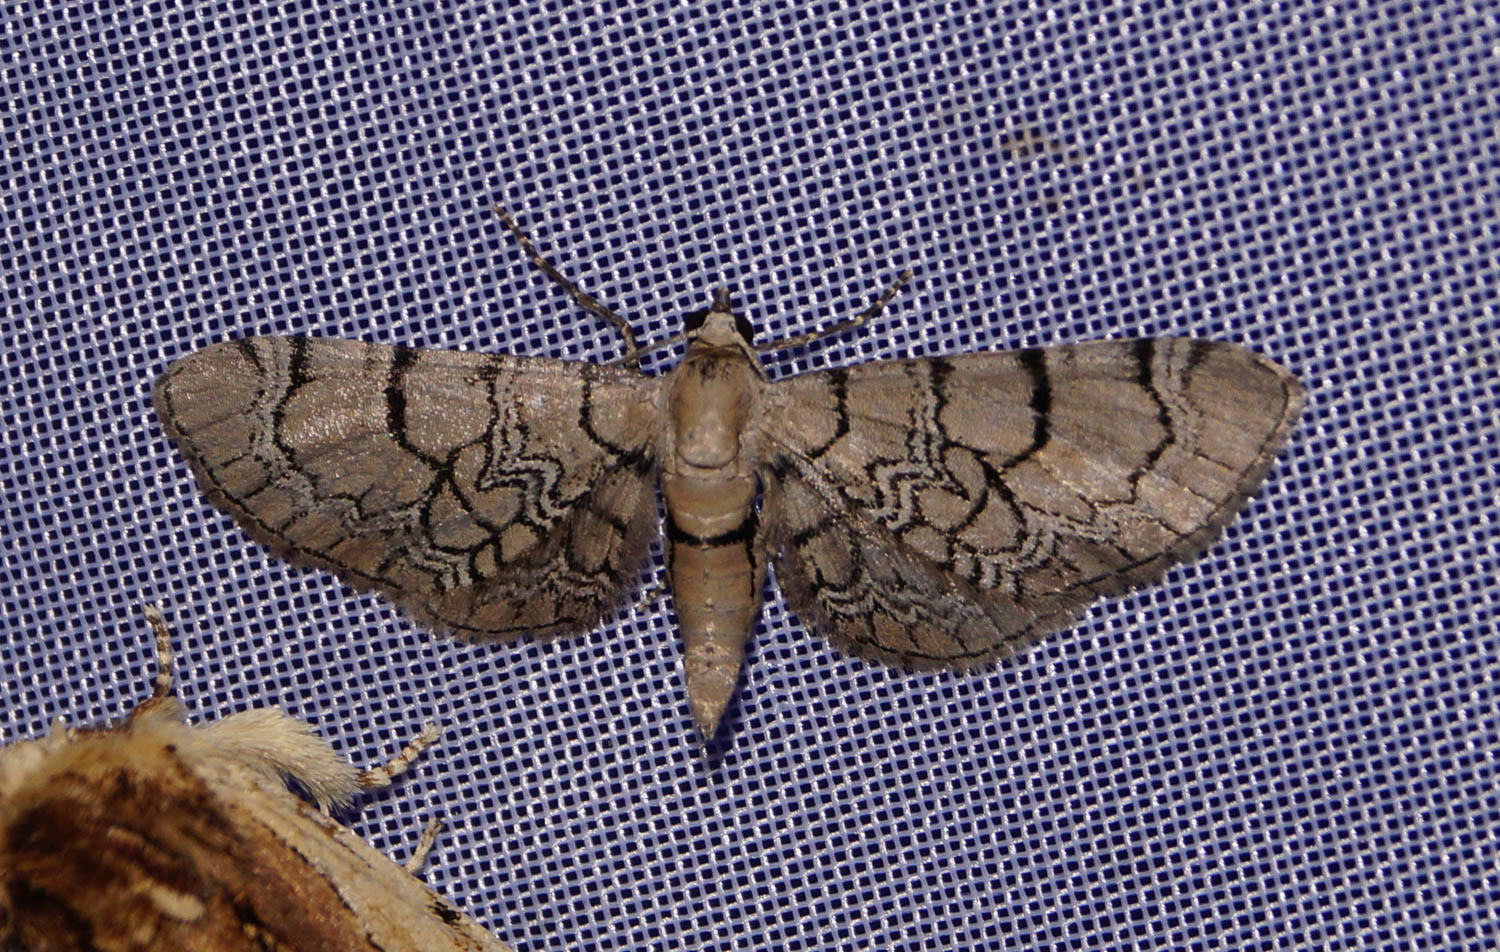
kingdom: Animalia
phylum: Arthropoda
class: Insecta
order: Lepidoptera
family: Geometridae
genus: Eupithecia
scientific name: Eupithecia venosata
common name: Netted pug
